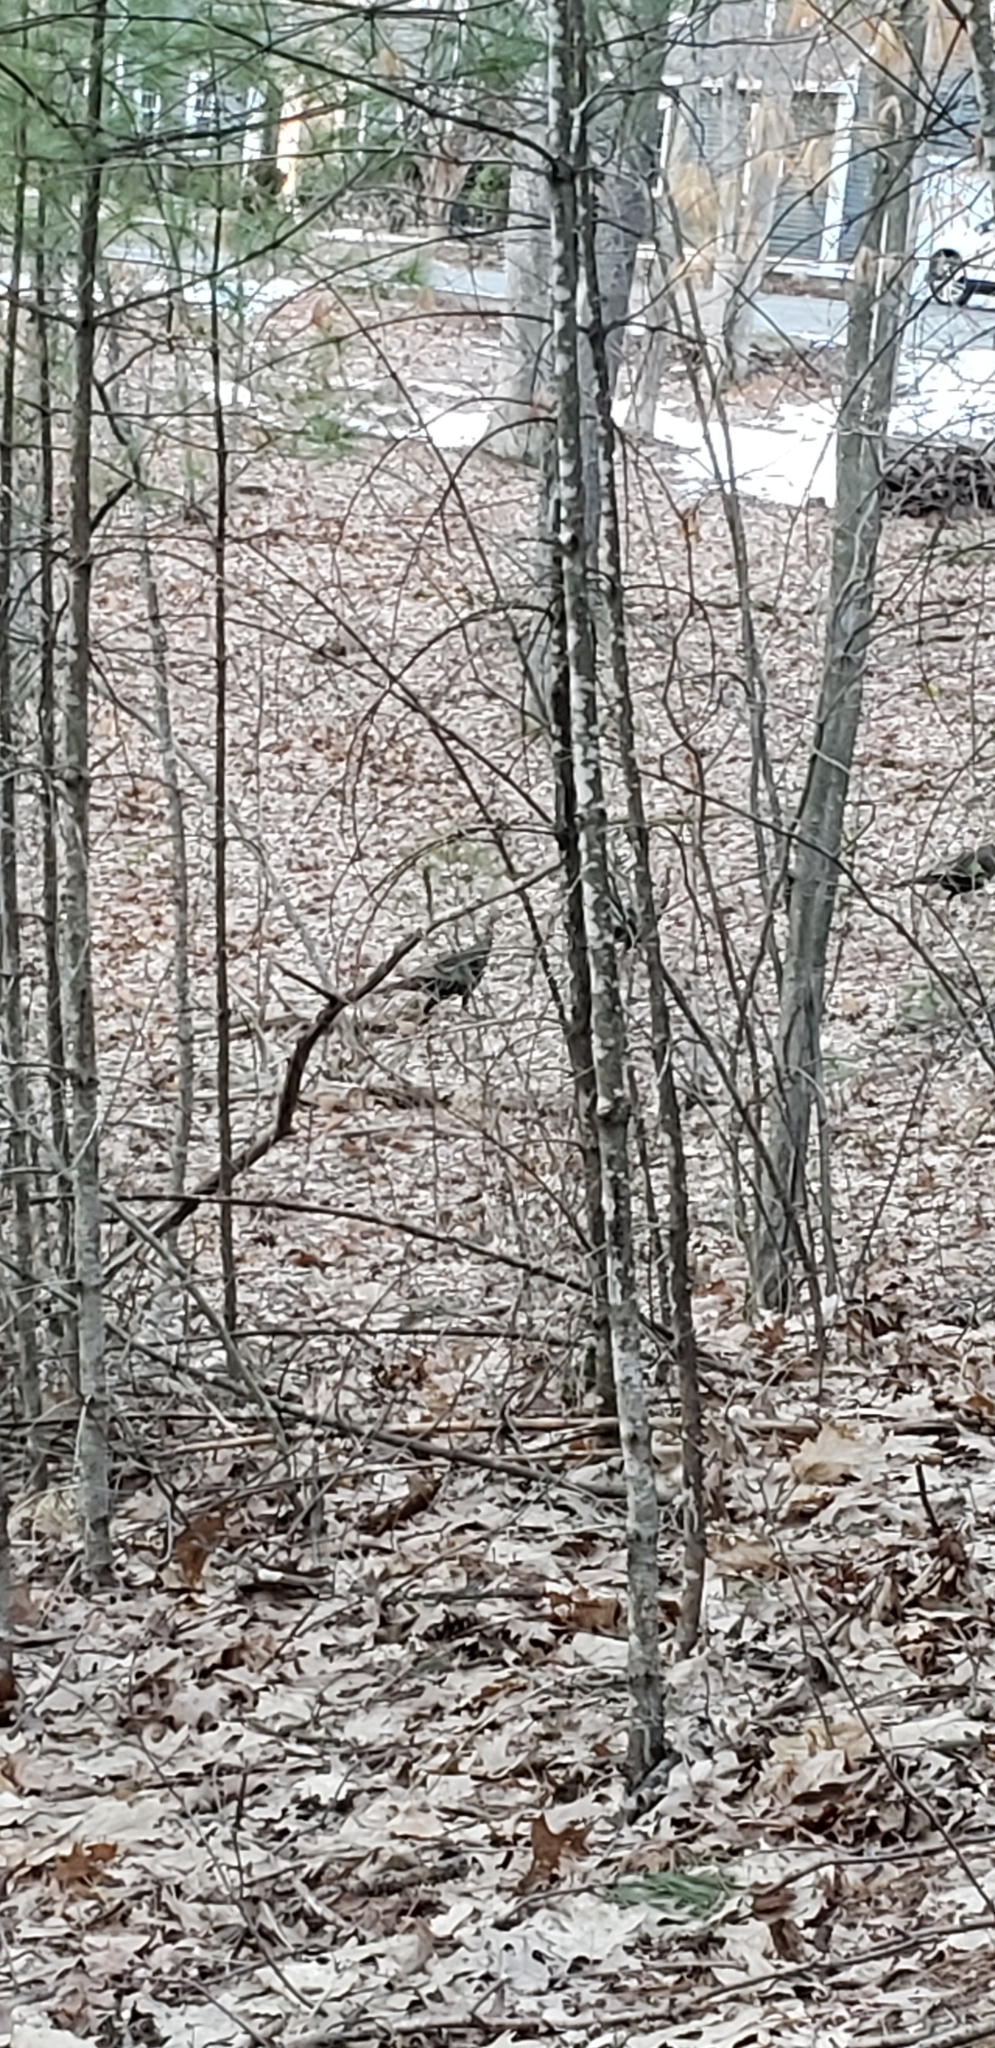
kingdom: Animalia
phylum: Chordata
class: Aves
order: Galliformes
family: Phasianidae
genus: Meleagris
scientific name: Meleagris gallopavo
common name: Wild turkey
